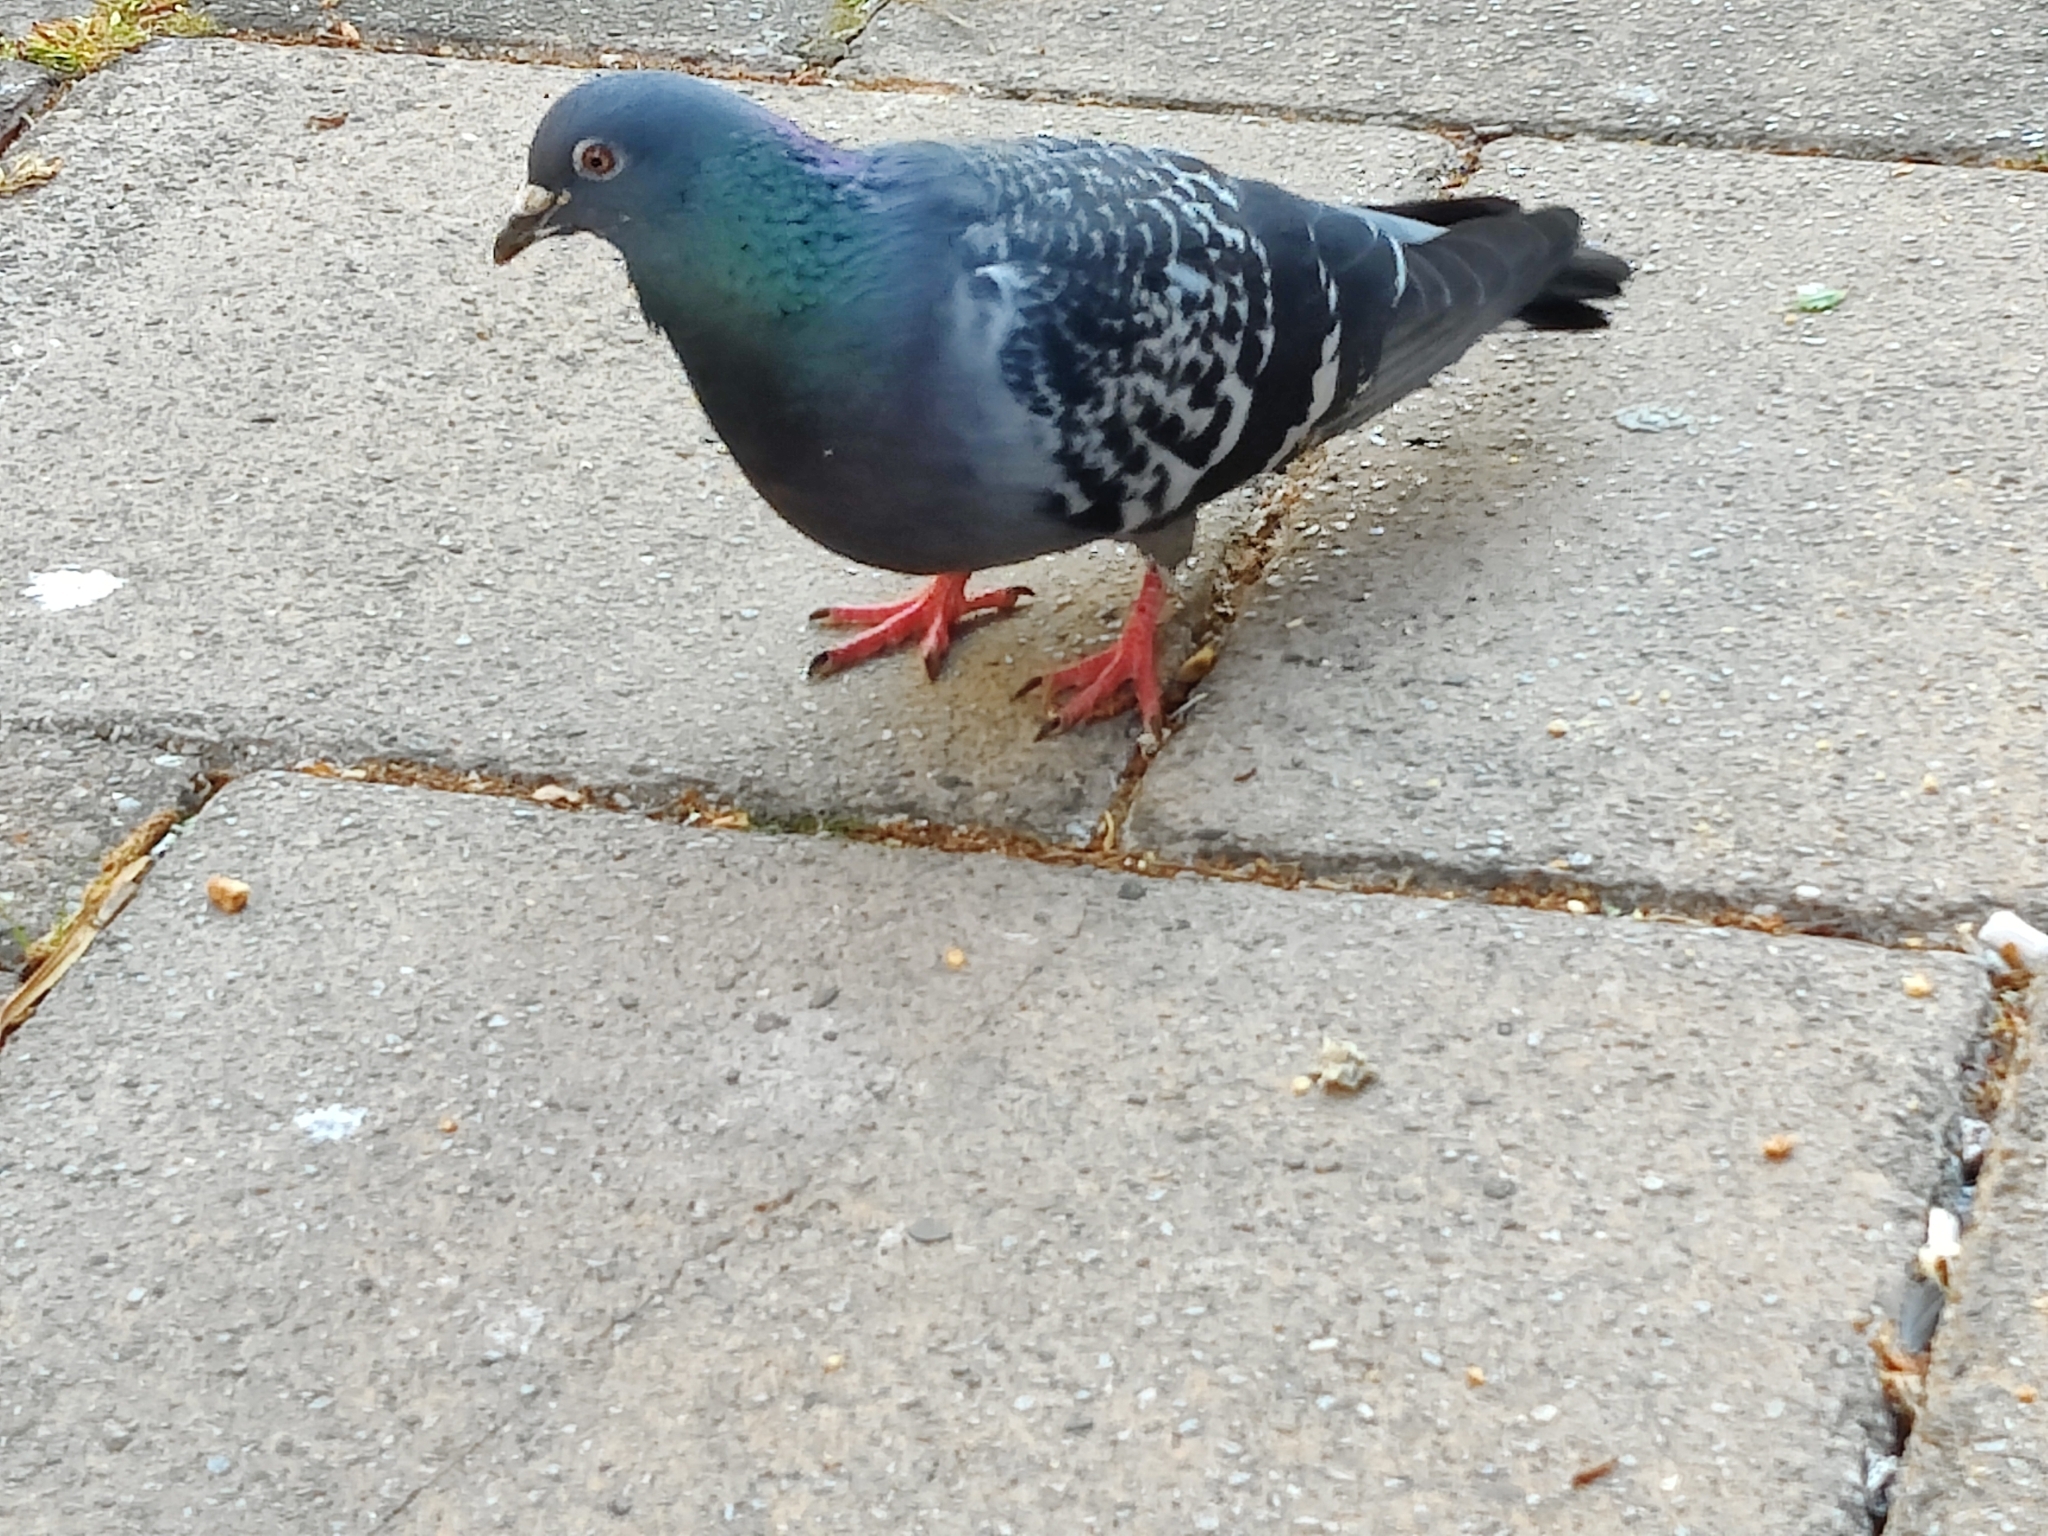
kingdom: Animalia
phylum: Chordata
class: Aves
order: Columbiformes
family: Columbidae
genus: Columba
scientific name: Columba livia
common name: Rock pigeon
